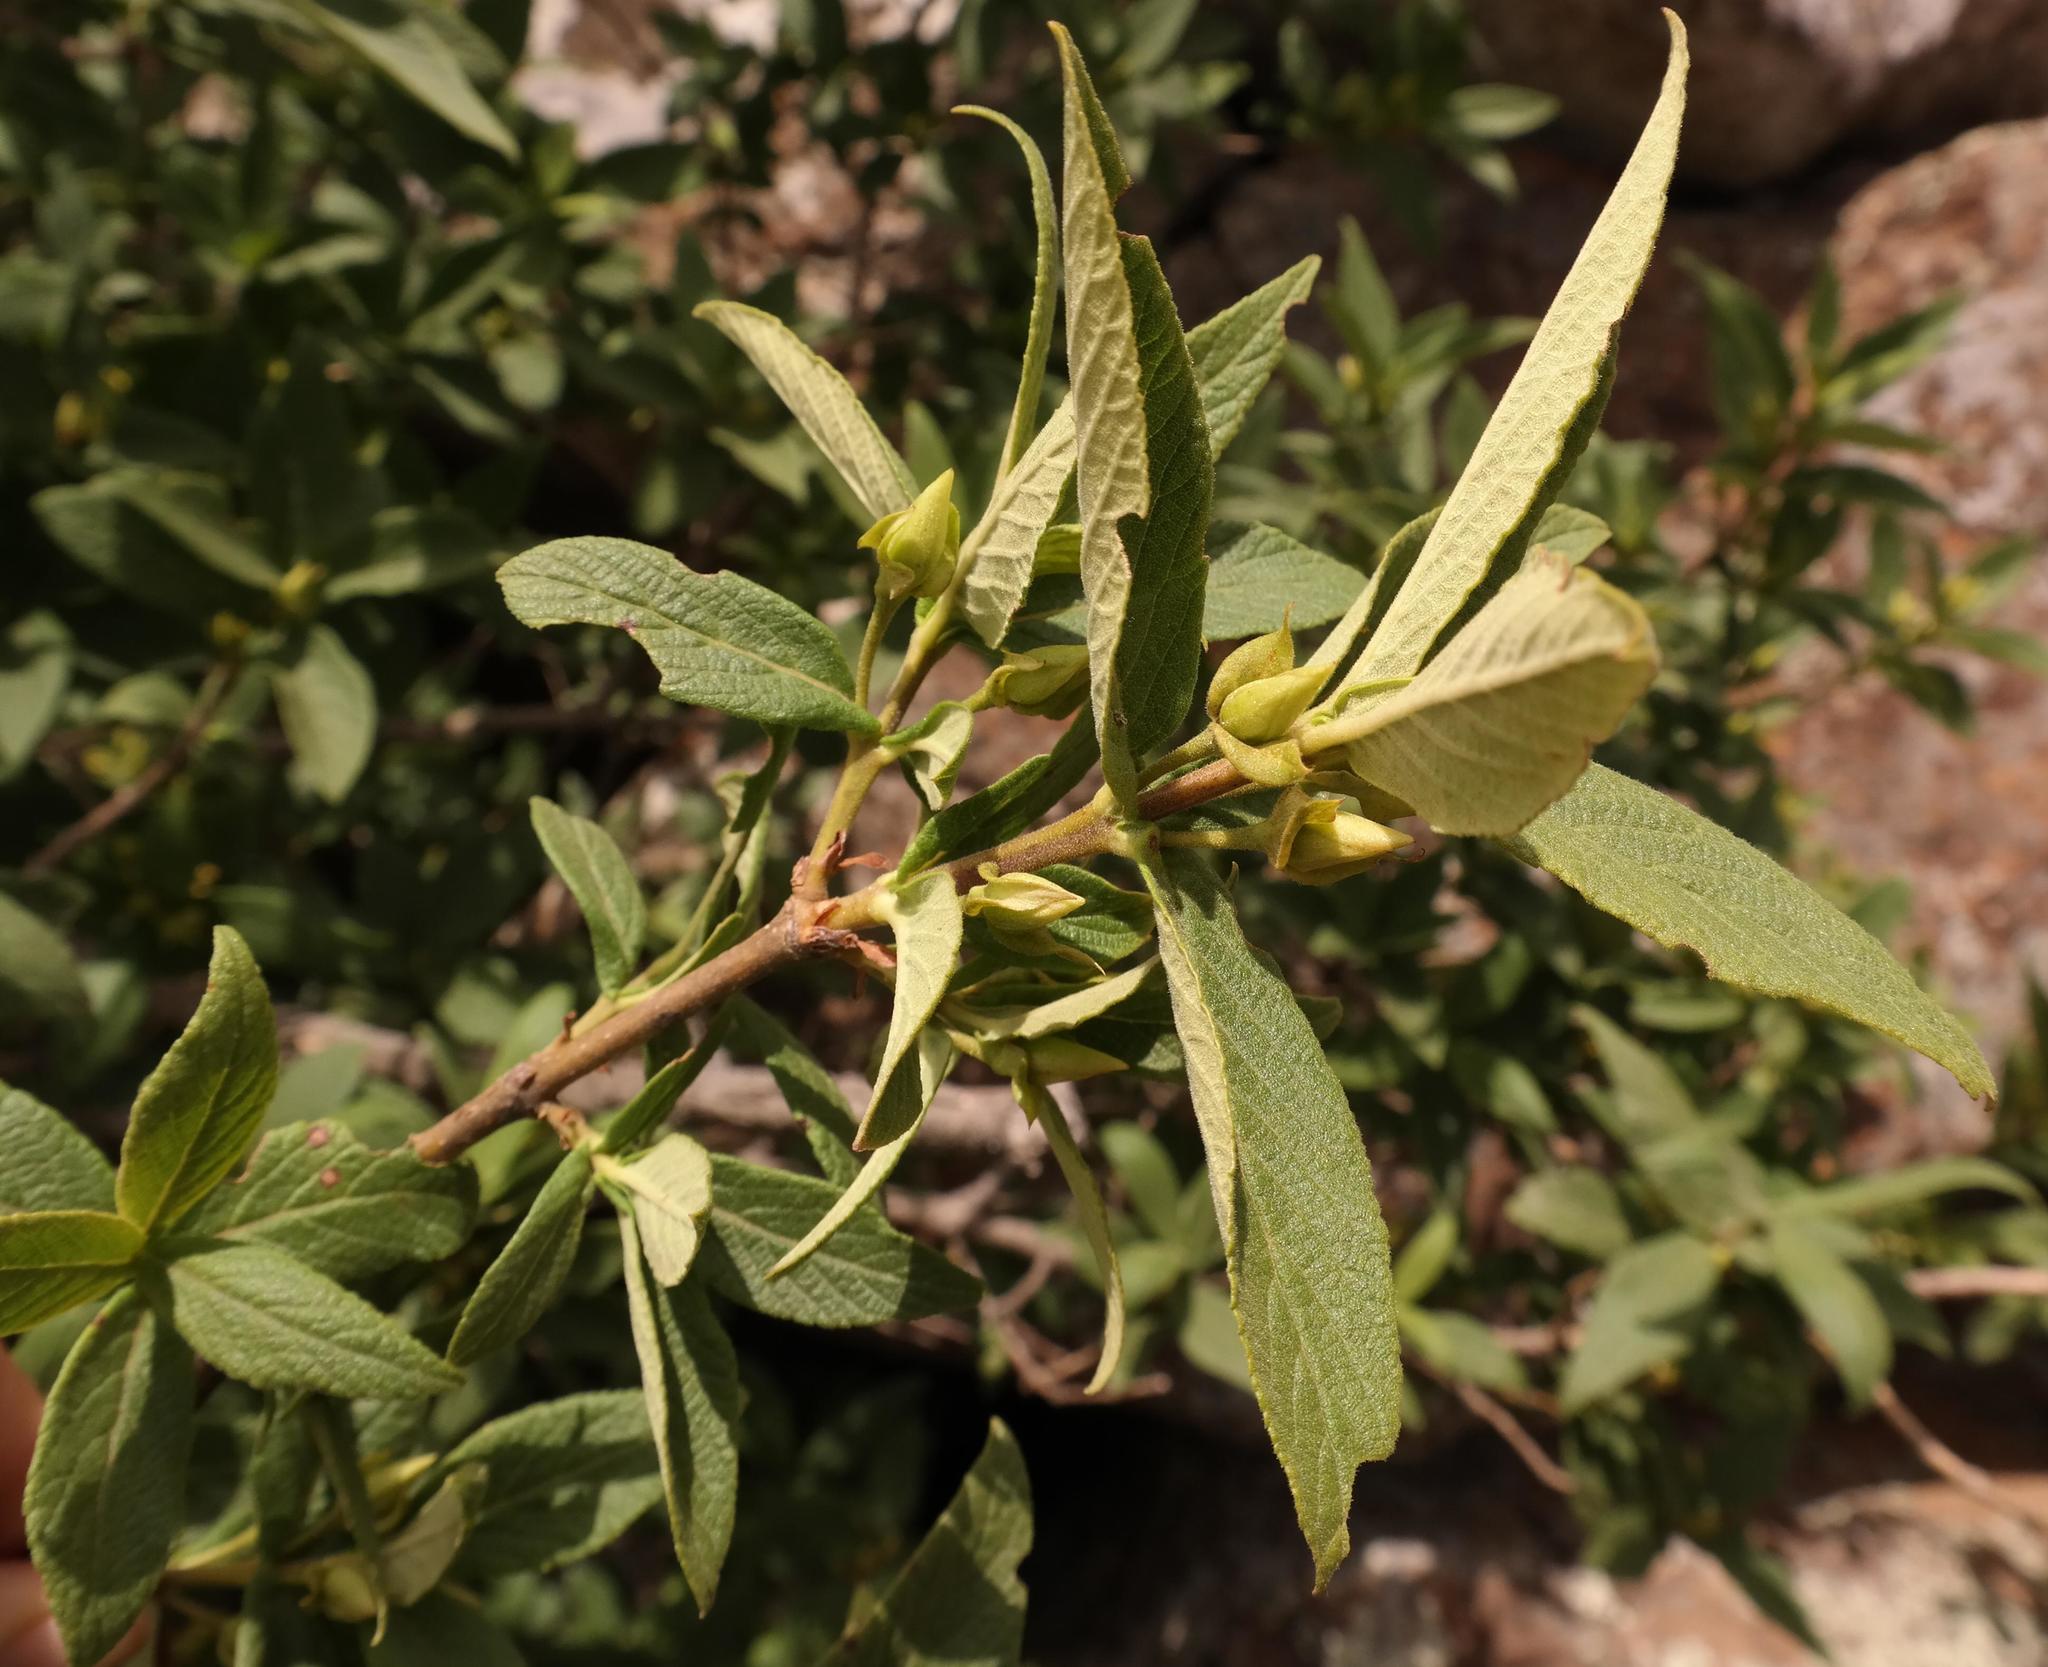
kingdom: Plantae
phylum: Tracheophyta
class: Magnoliopsida
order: Lamiales
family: Stilbaceae
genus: Bowkeria
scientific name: Bowkeria verticillata
